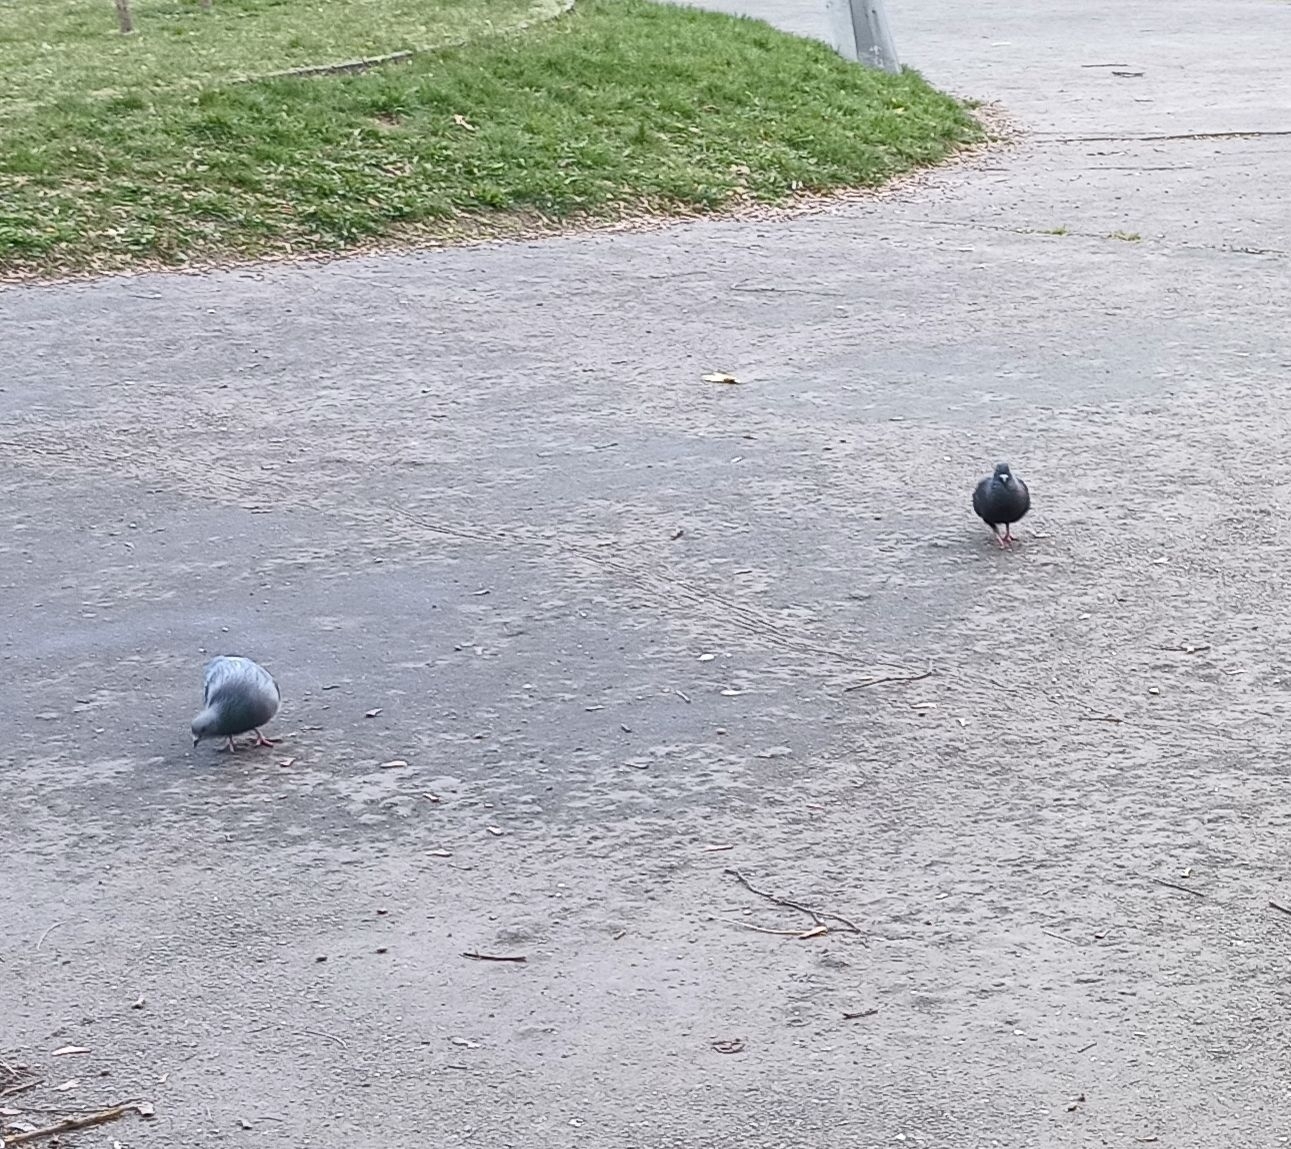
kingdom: Animalia
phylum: Chordata
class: Aves
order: Columbiformes
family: Columbidae
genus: Columba
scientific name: Columba livia
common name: Rock pigeon
